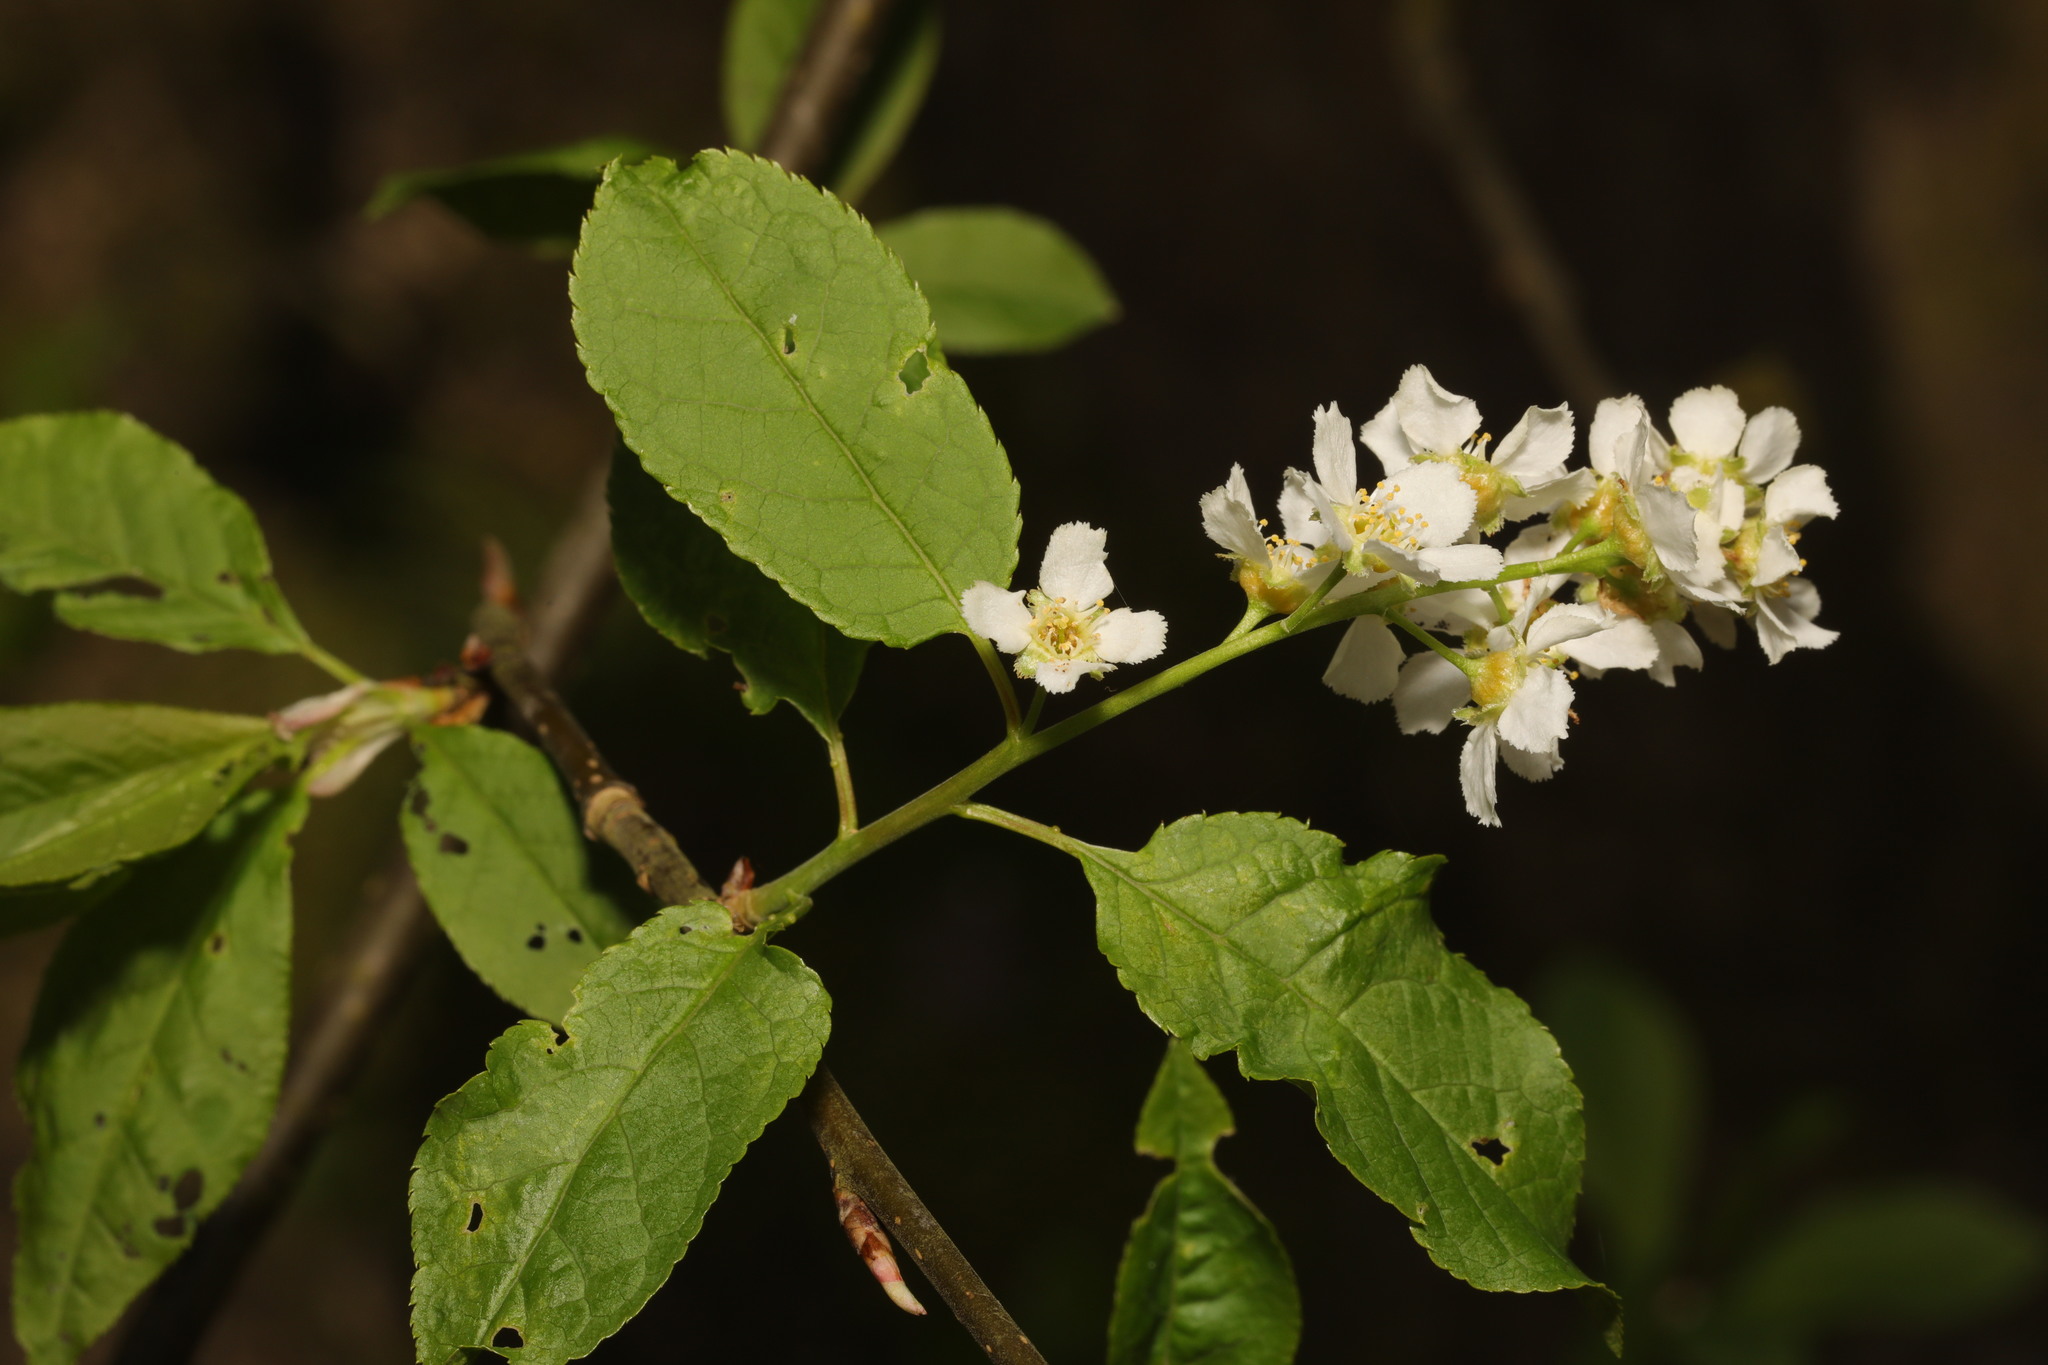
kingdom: Plantae
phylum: Tracheophyta
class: Magnoliopsida
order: Rosales
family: Rosaceae
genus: Prunus
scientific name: Prunus padus
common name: Bird cherry
